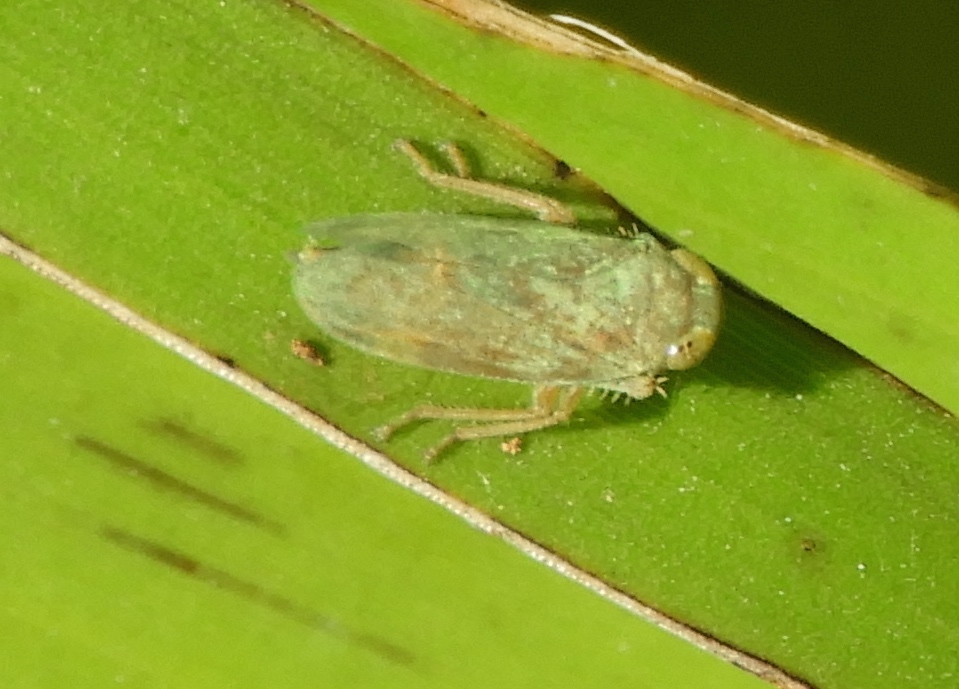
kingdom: Animalia
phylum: Arthropoda
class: Insecta
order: Hemiptera
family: Cicadellidae
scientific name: Cicadellidae
